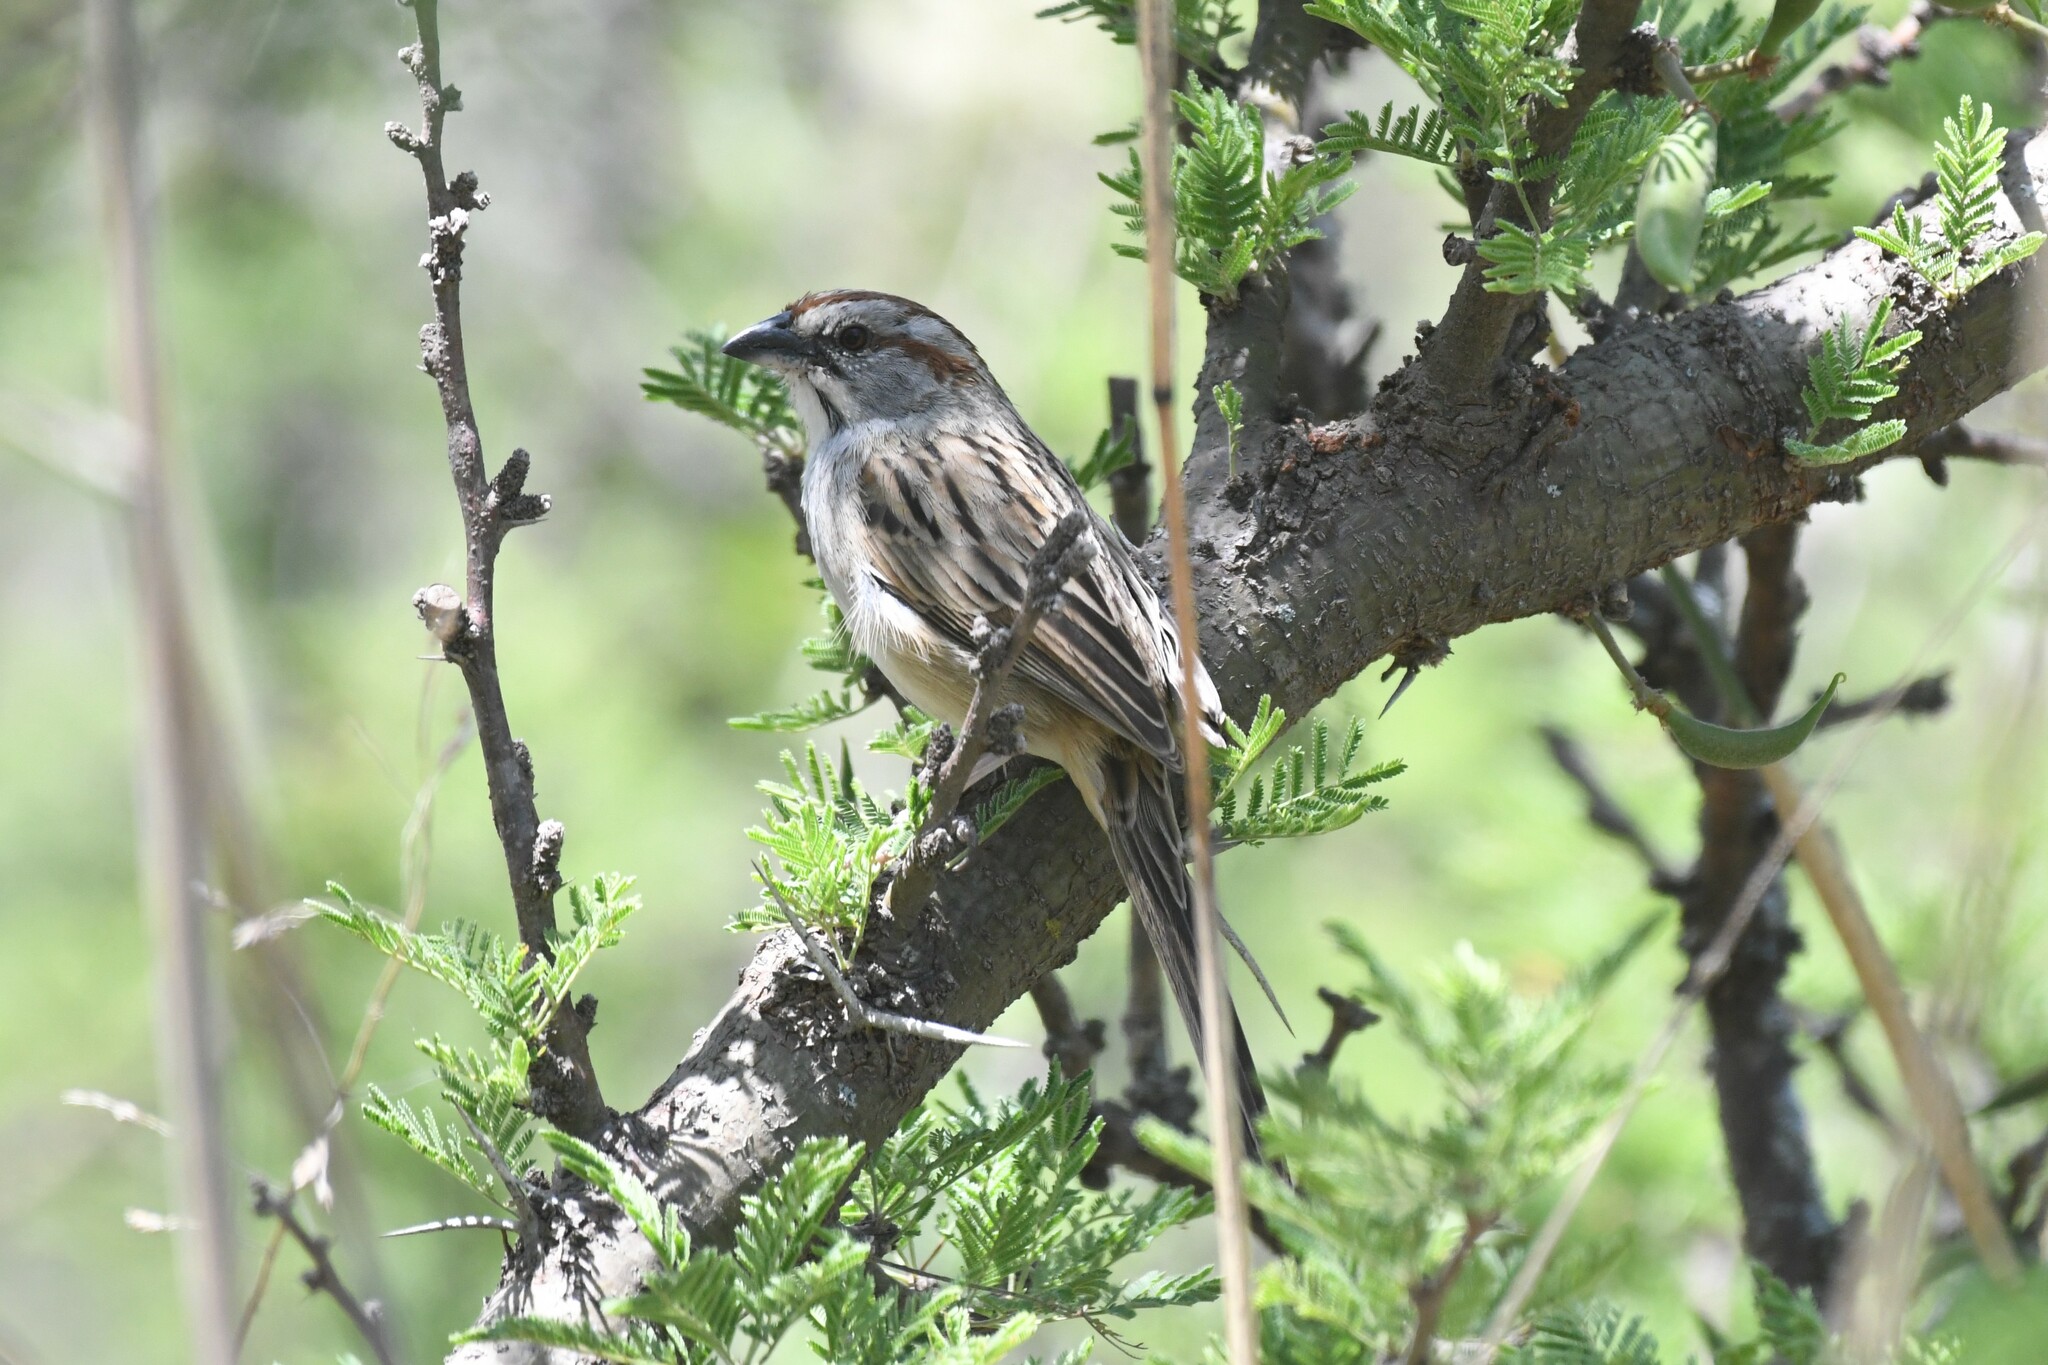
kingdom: Animalia
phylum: Chordata
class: Aves
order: Passeriformes
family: Passerellidae
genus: Rhynchospiza
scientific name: Rhynchospiza strigiceps
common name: Stripe-capped sparrow
